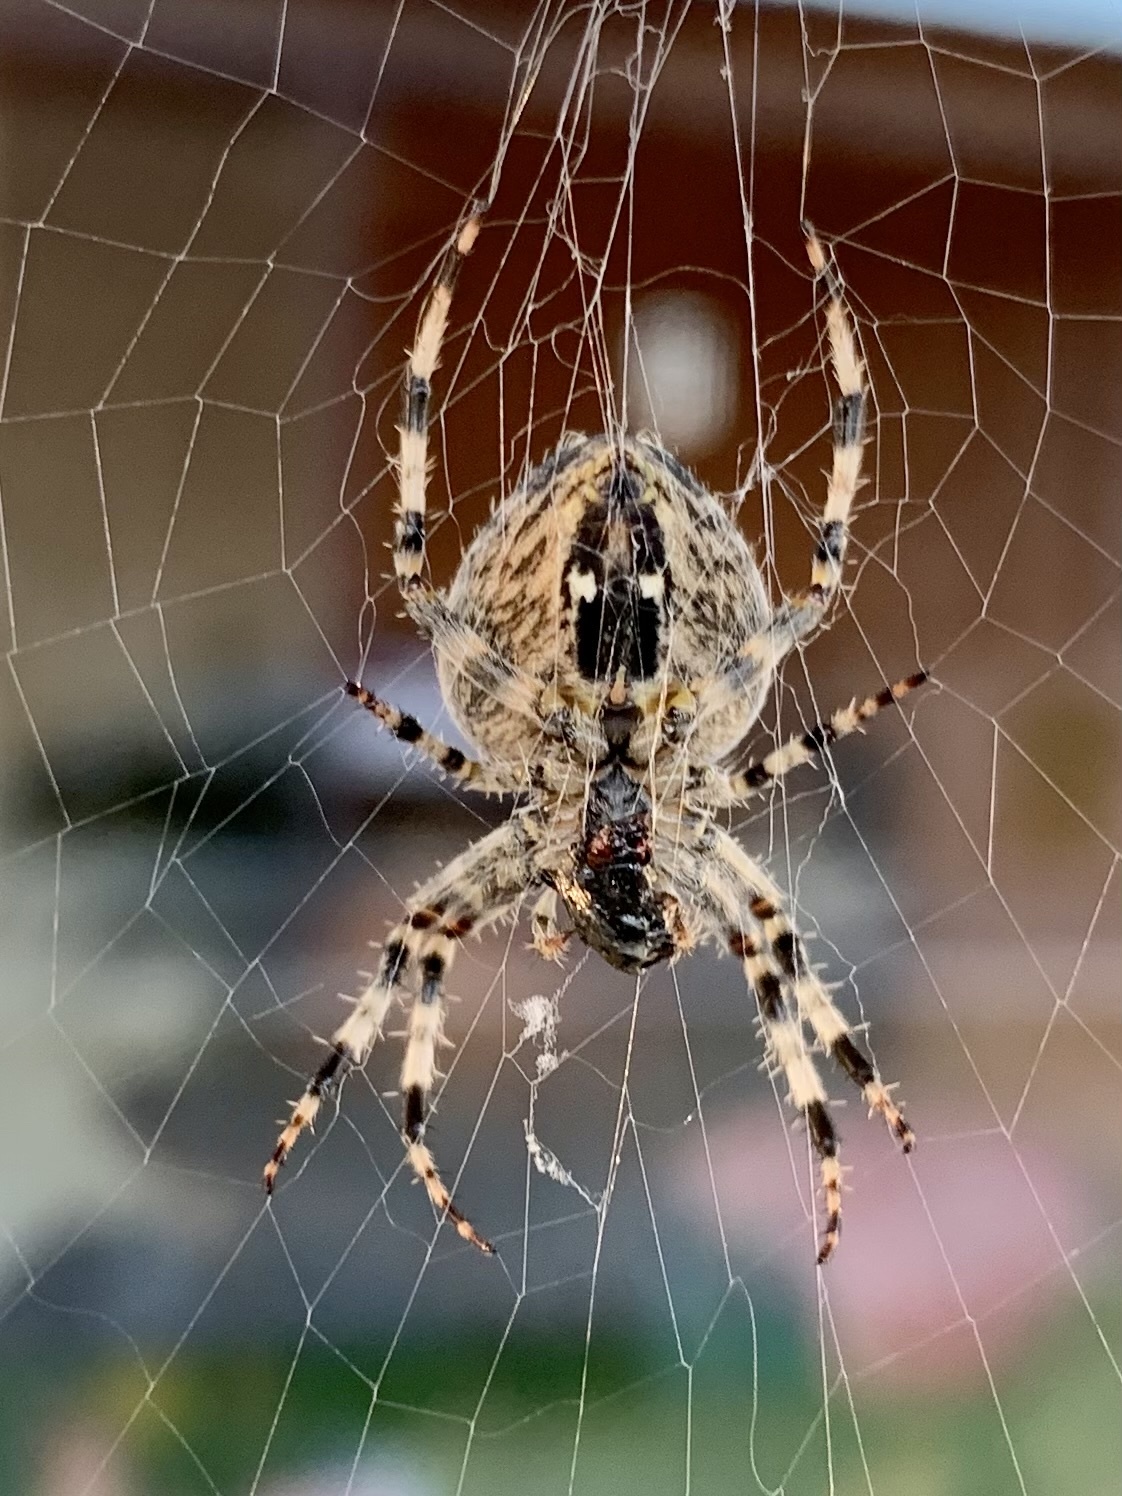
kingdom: Animalia
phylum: Arthropoda
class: Arachnida
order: Araneae
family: Araneidae
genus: Araneus
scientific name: Araneus diadematus
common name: Cross orbweaver
